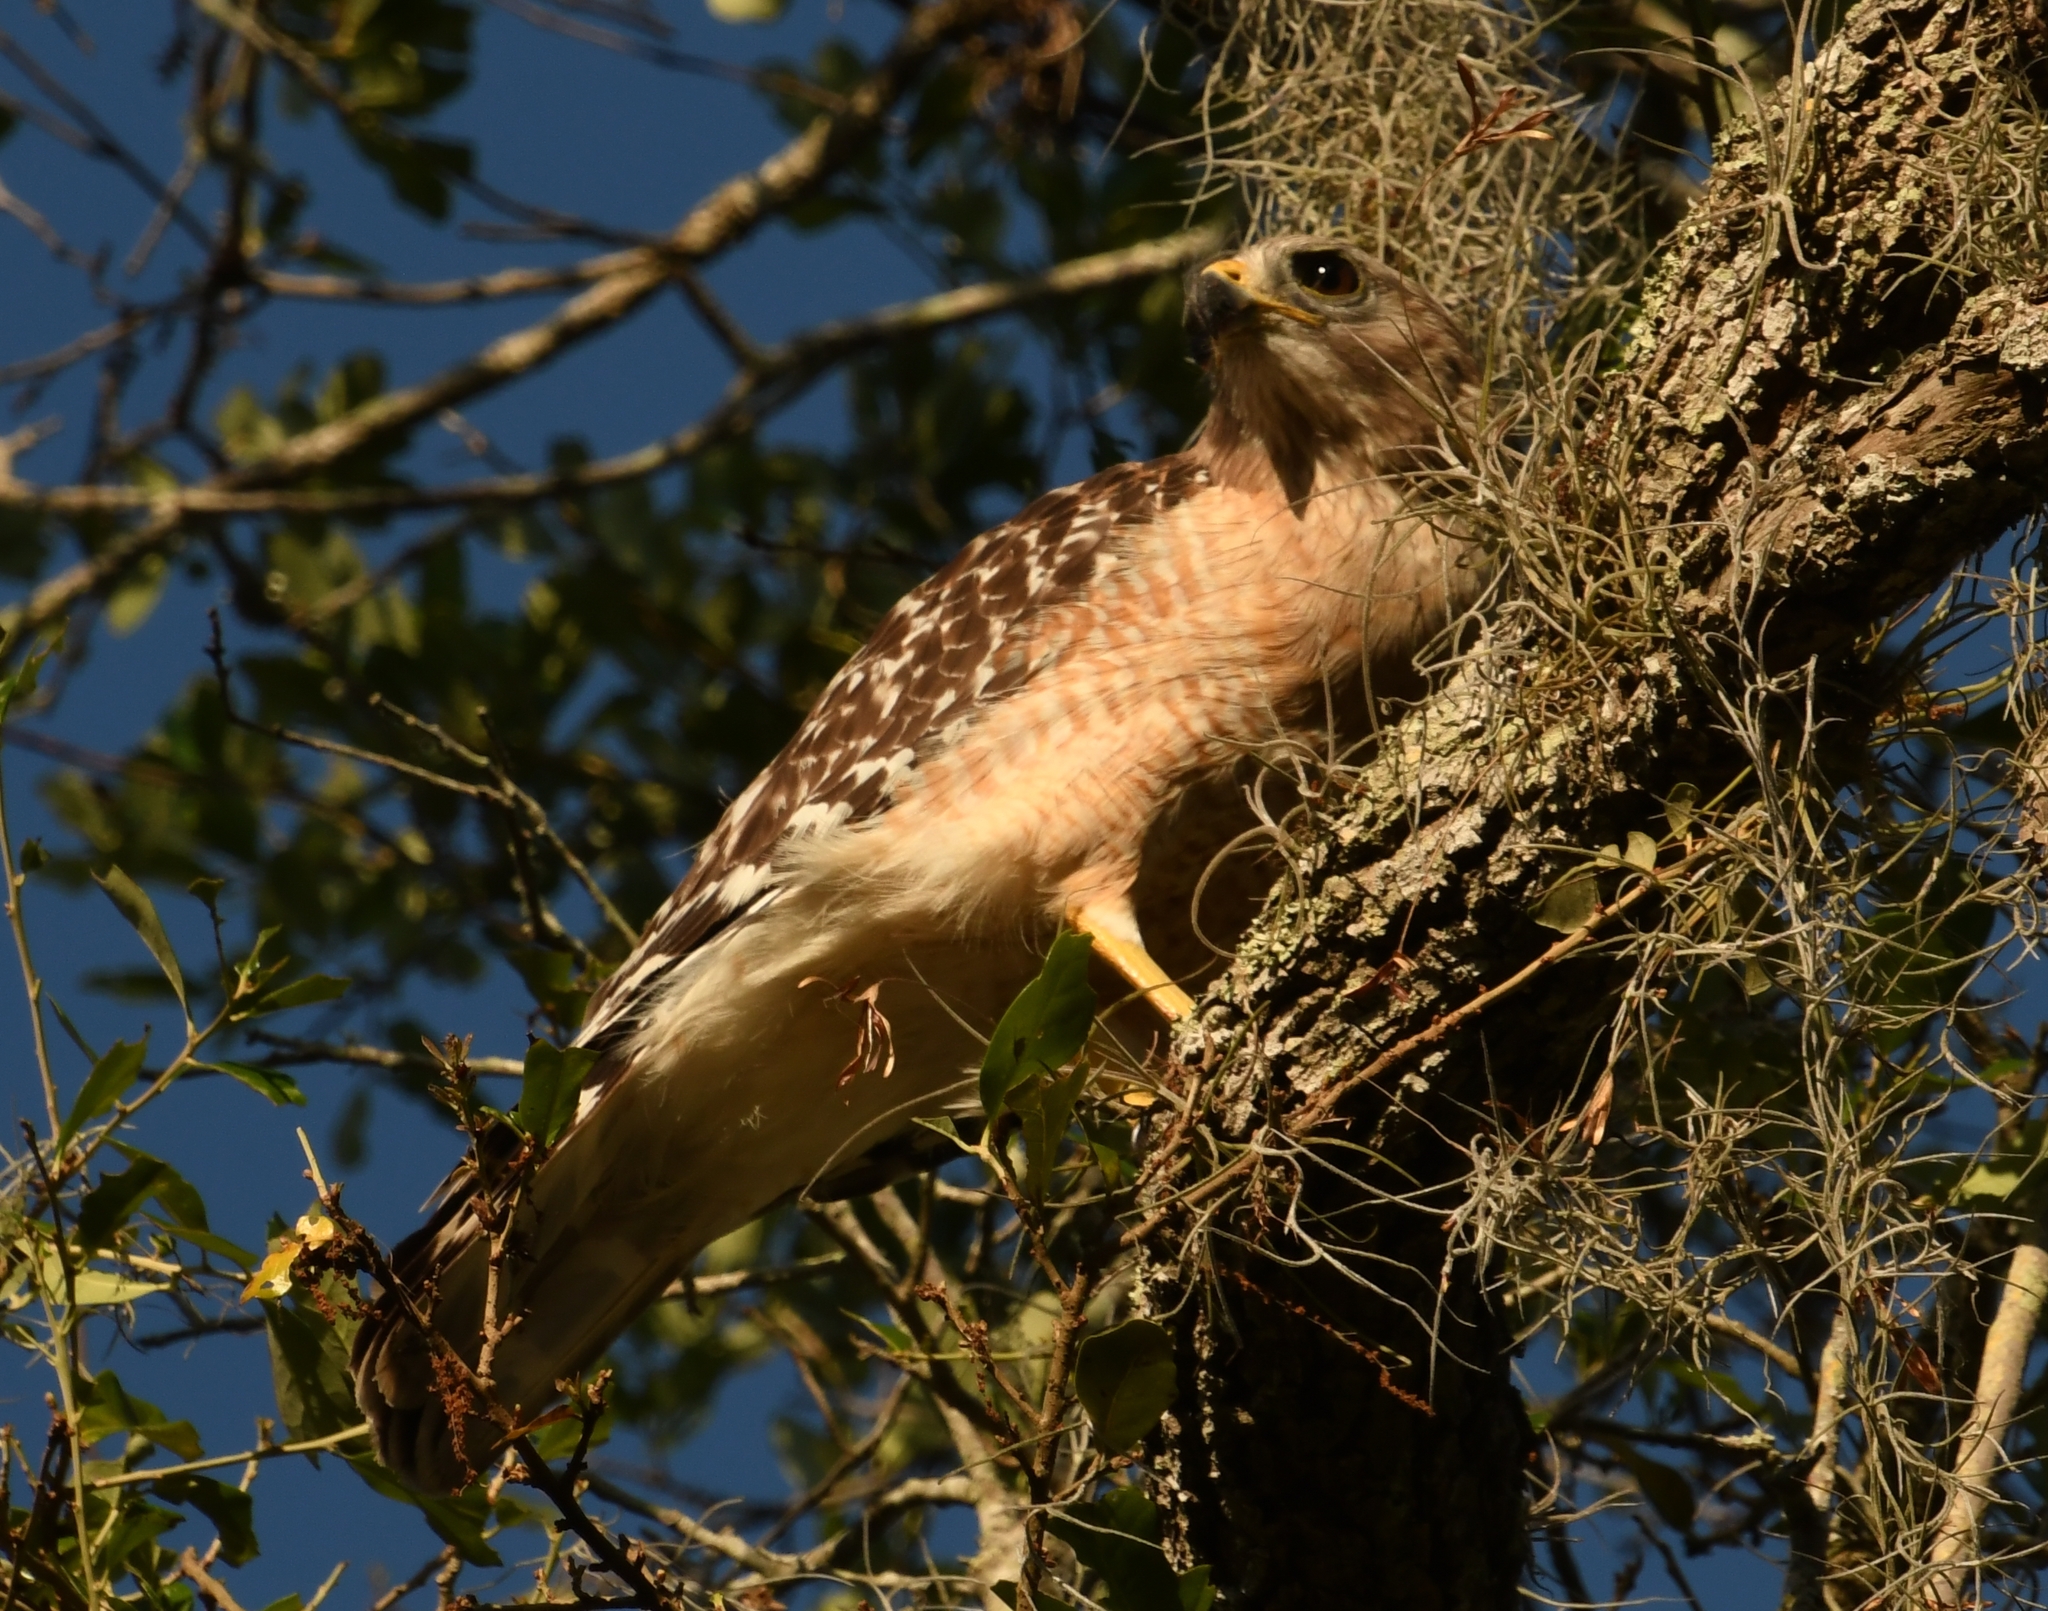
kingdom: Animalia
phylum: Chordata
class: Aves
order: Accipitriformes
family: Accipitridae
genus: Buteo
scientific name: Buteo lineatus
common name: Red-shouldered hawk
